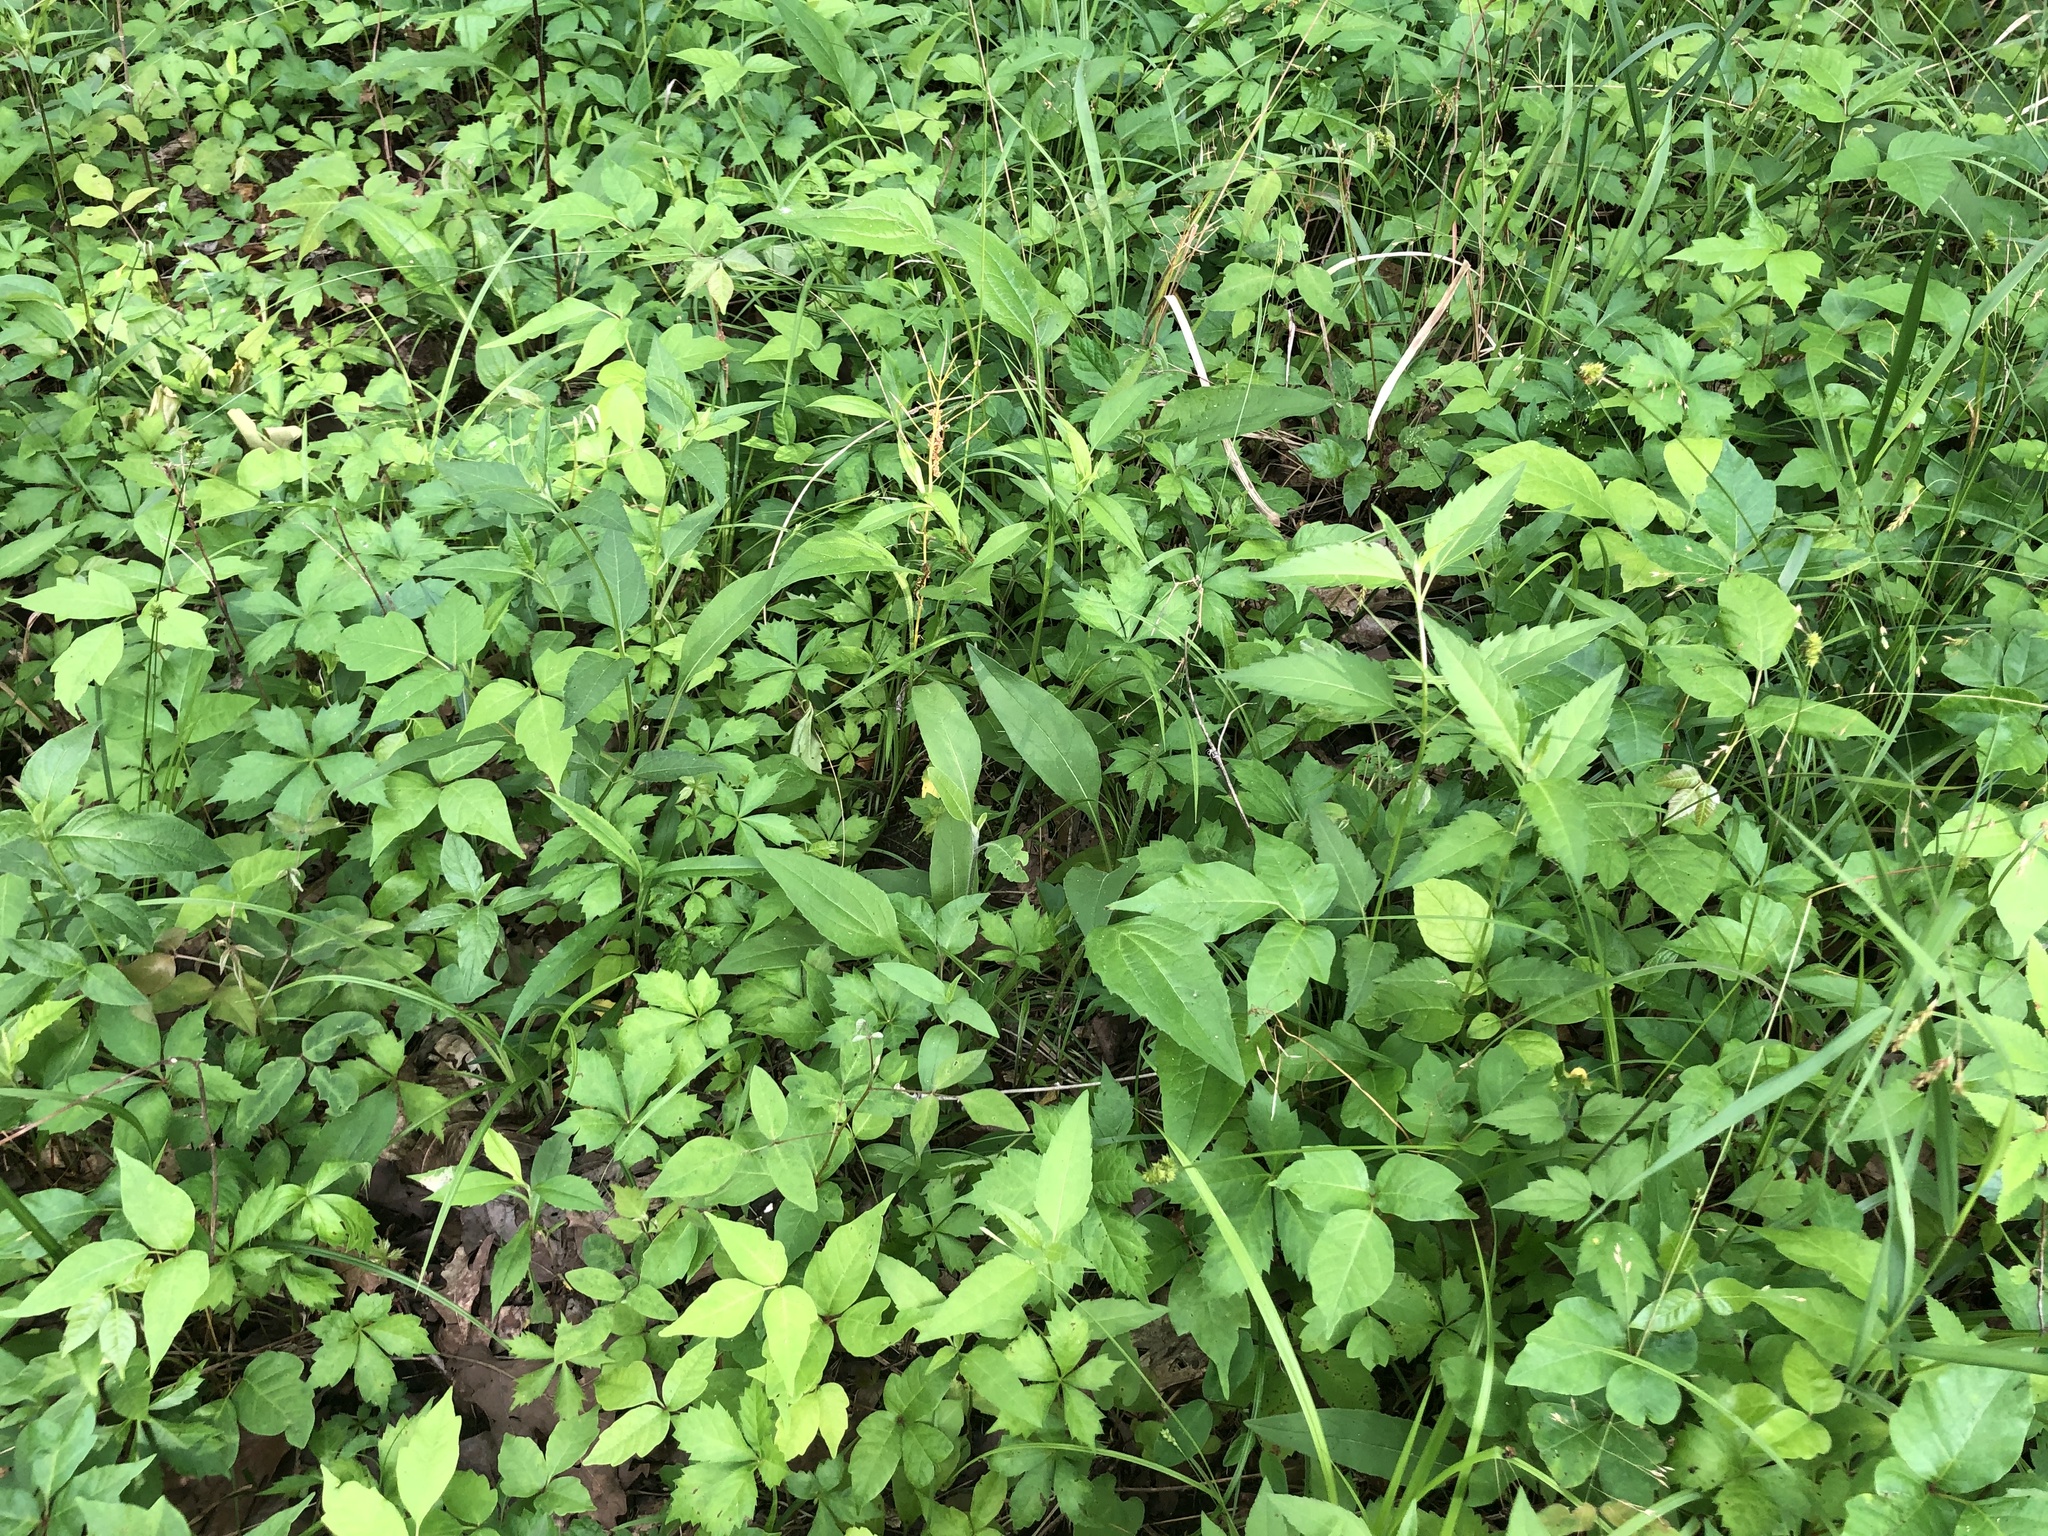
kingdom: Plantae
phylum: Tracheophyta
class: Magnoliopsida
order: Asterales
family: Asteraceae
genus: Echinacea
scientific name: Echinacea purpurea
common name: Broad-leaved purple coneflower
